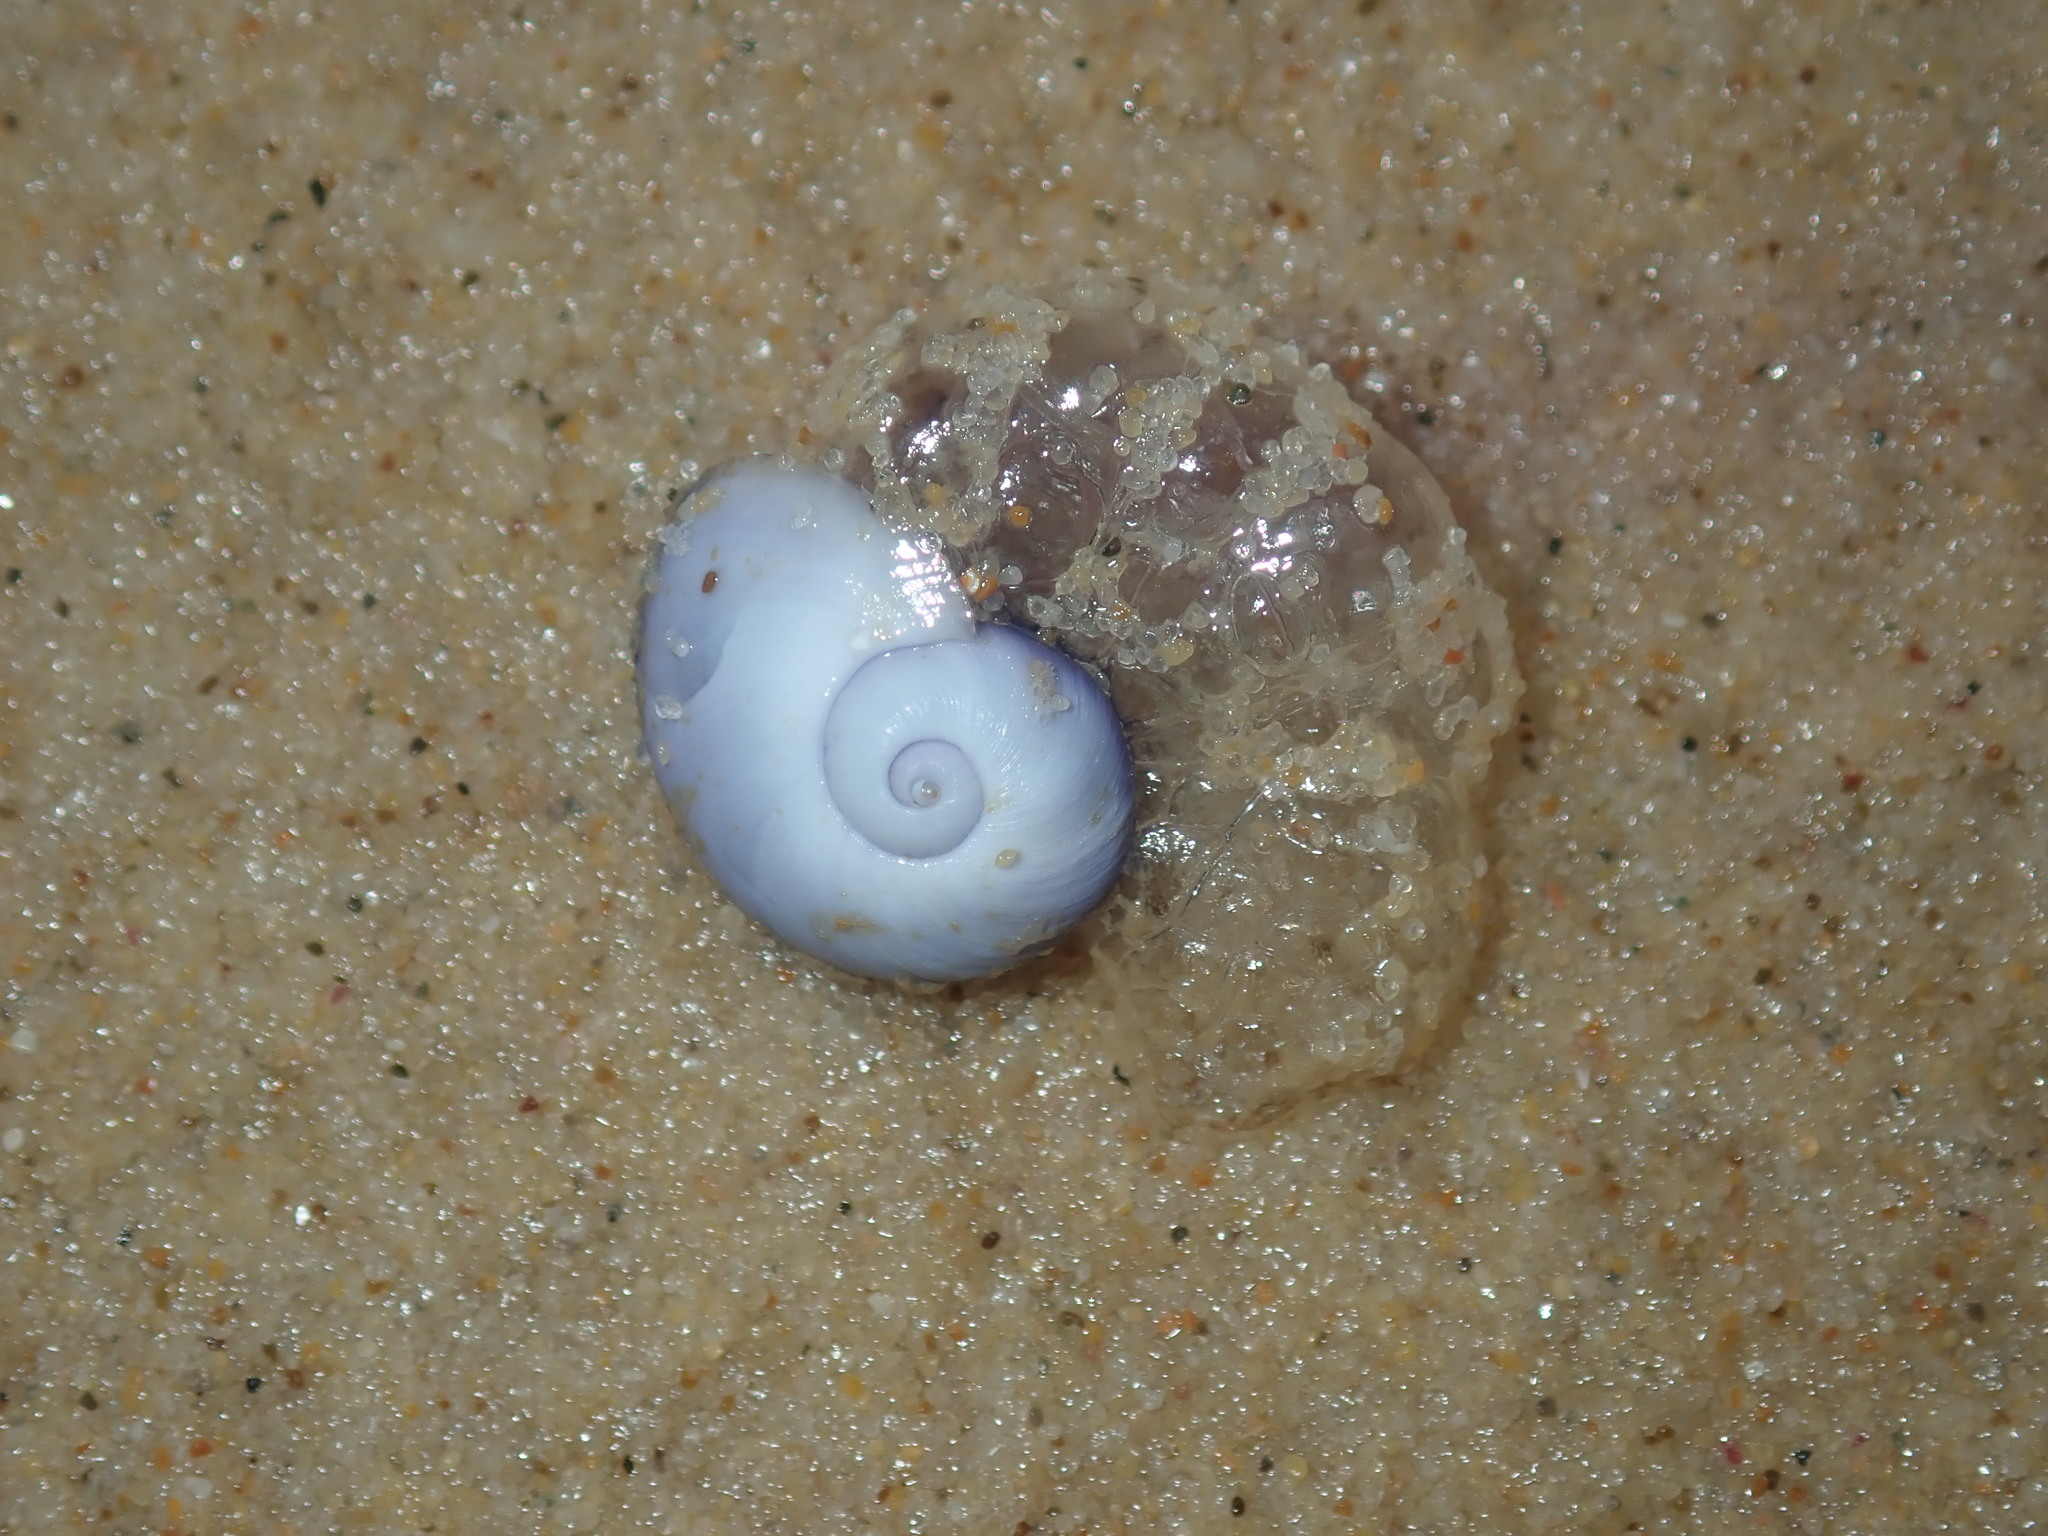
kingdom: Animalia
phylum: Mollusca
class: Gastropoda
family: Epitoniidae
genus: Janthina
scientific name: Janthina janthina
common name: Common janthina
